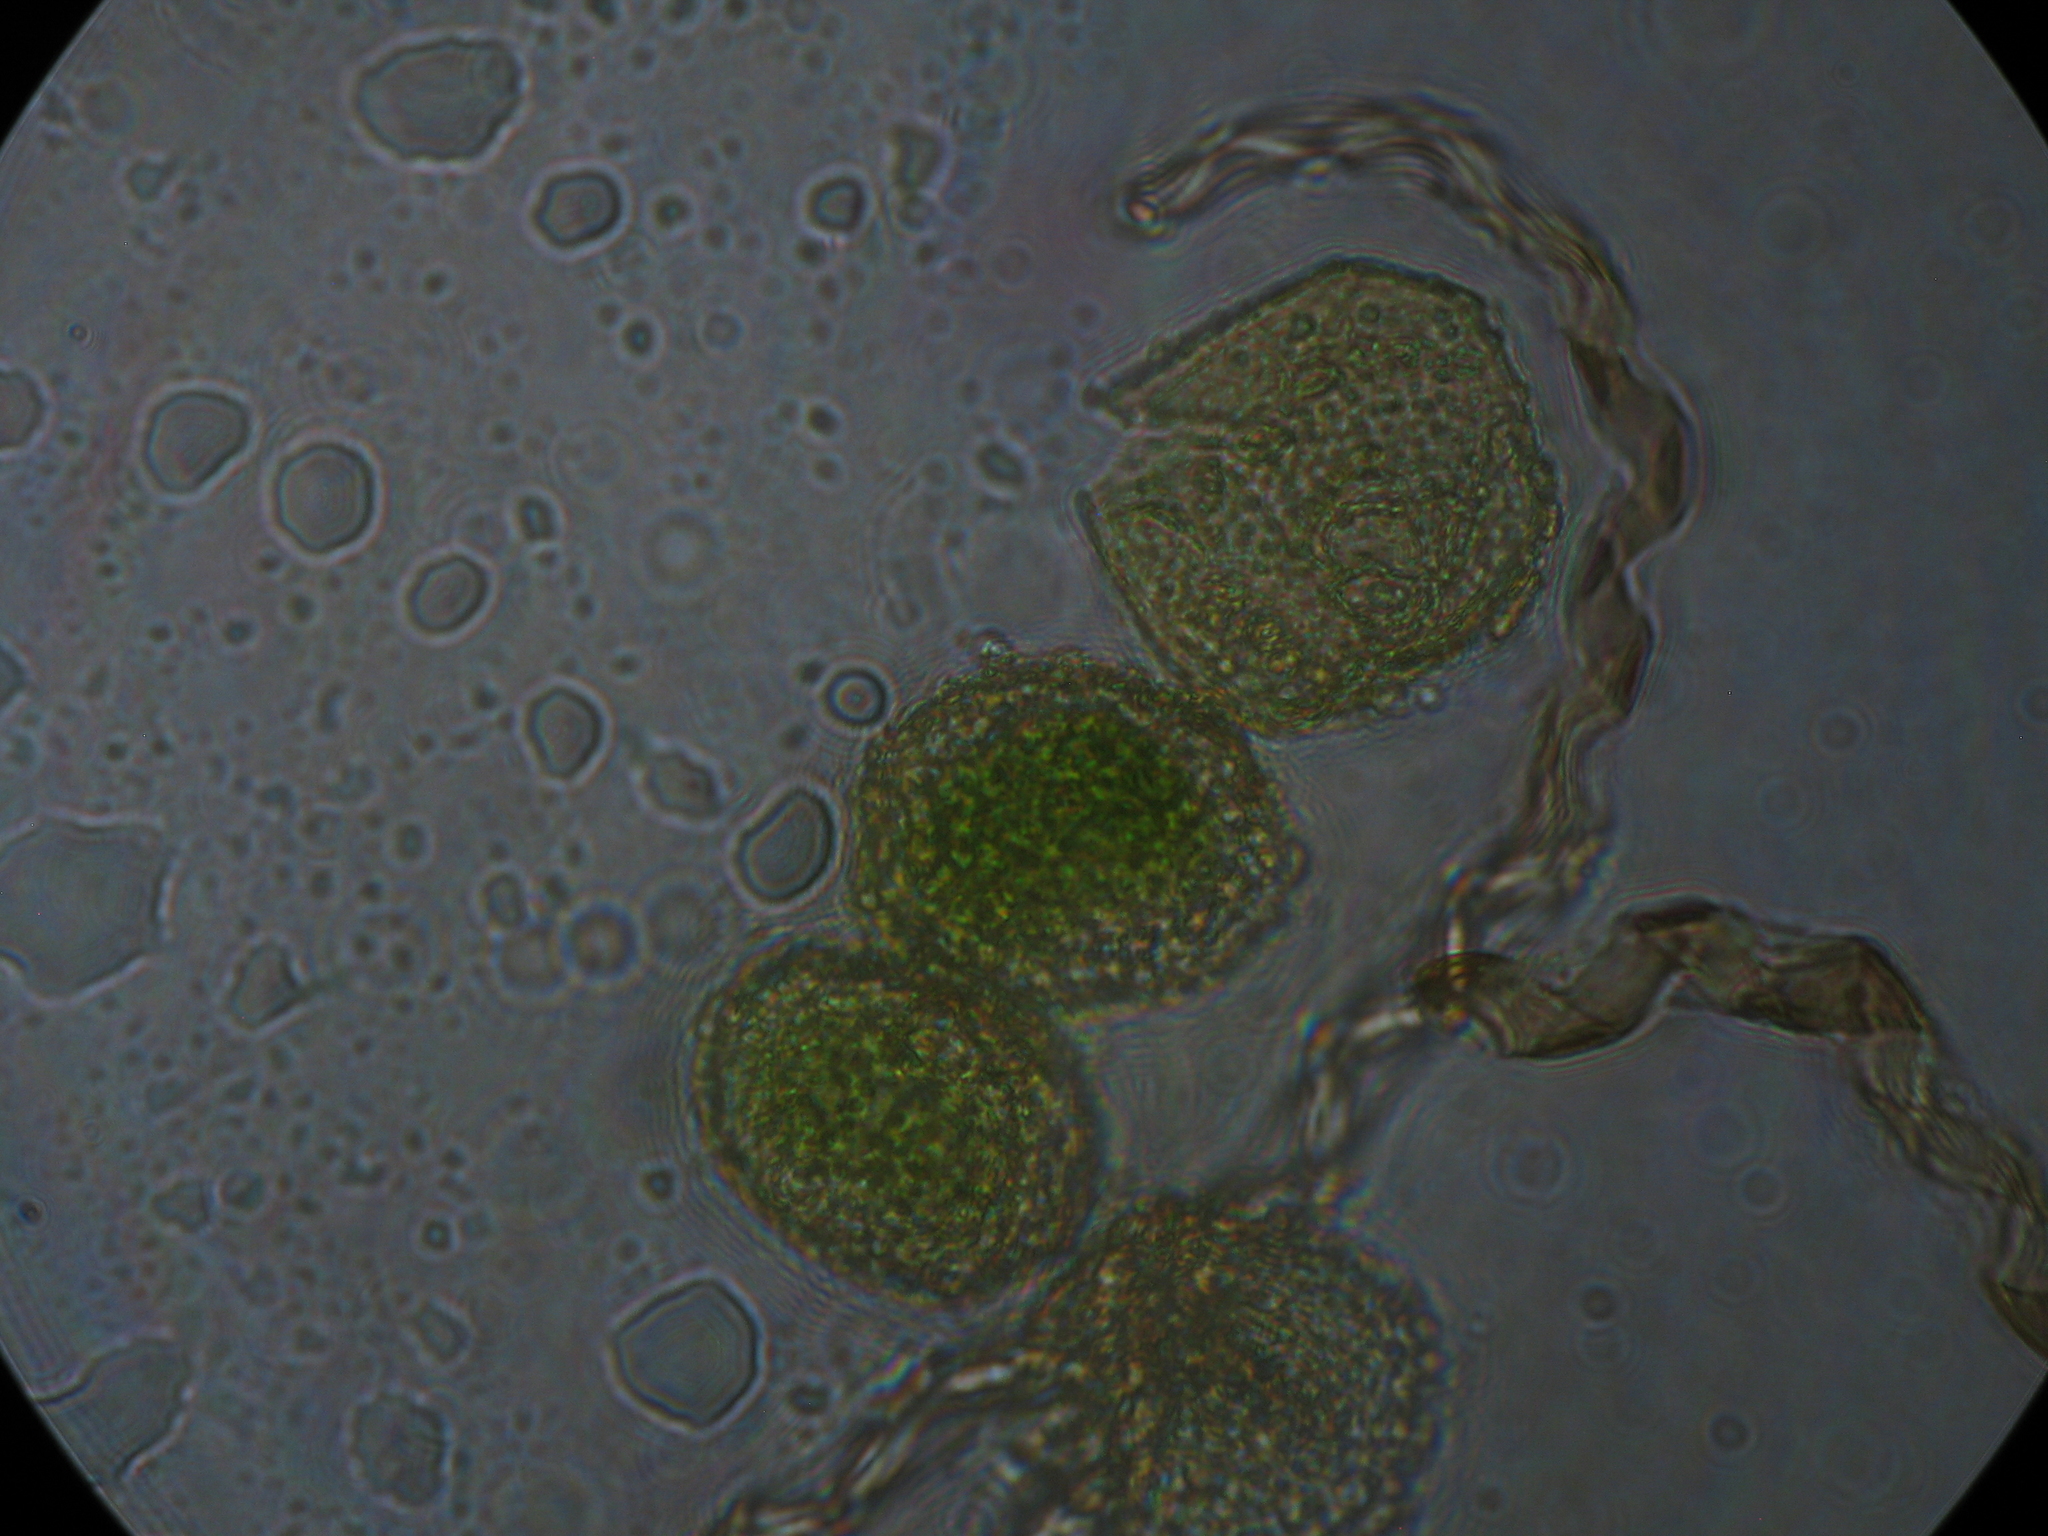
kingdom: Plantae
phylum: Anthocerotophyta
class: Anthocerotopsida
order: Dendrocerotales
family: Dendrocerotaceae
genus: Megaceros
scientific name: Megaceros flagellaris
